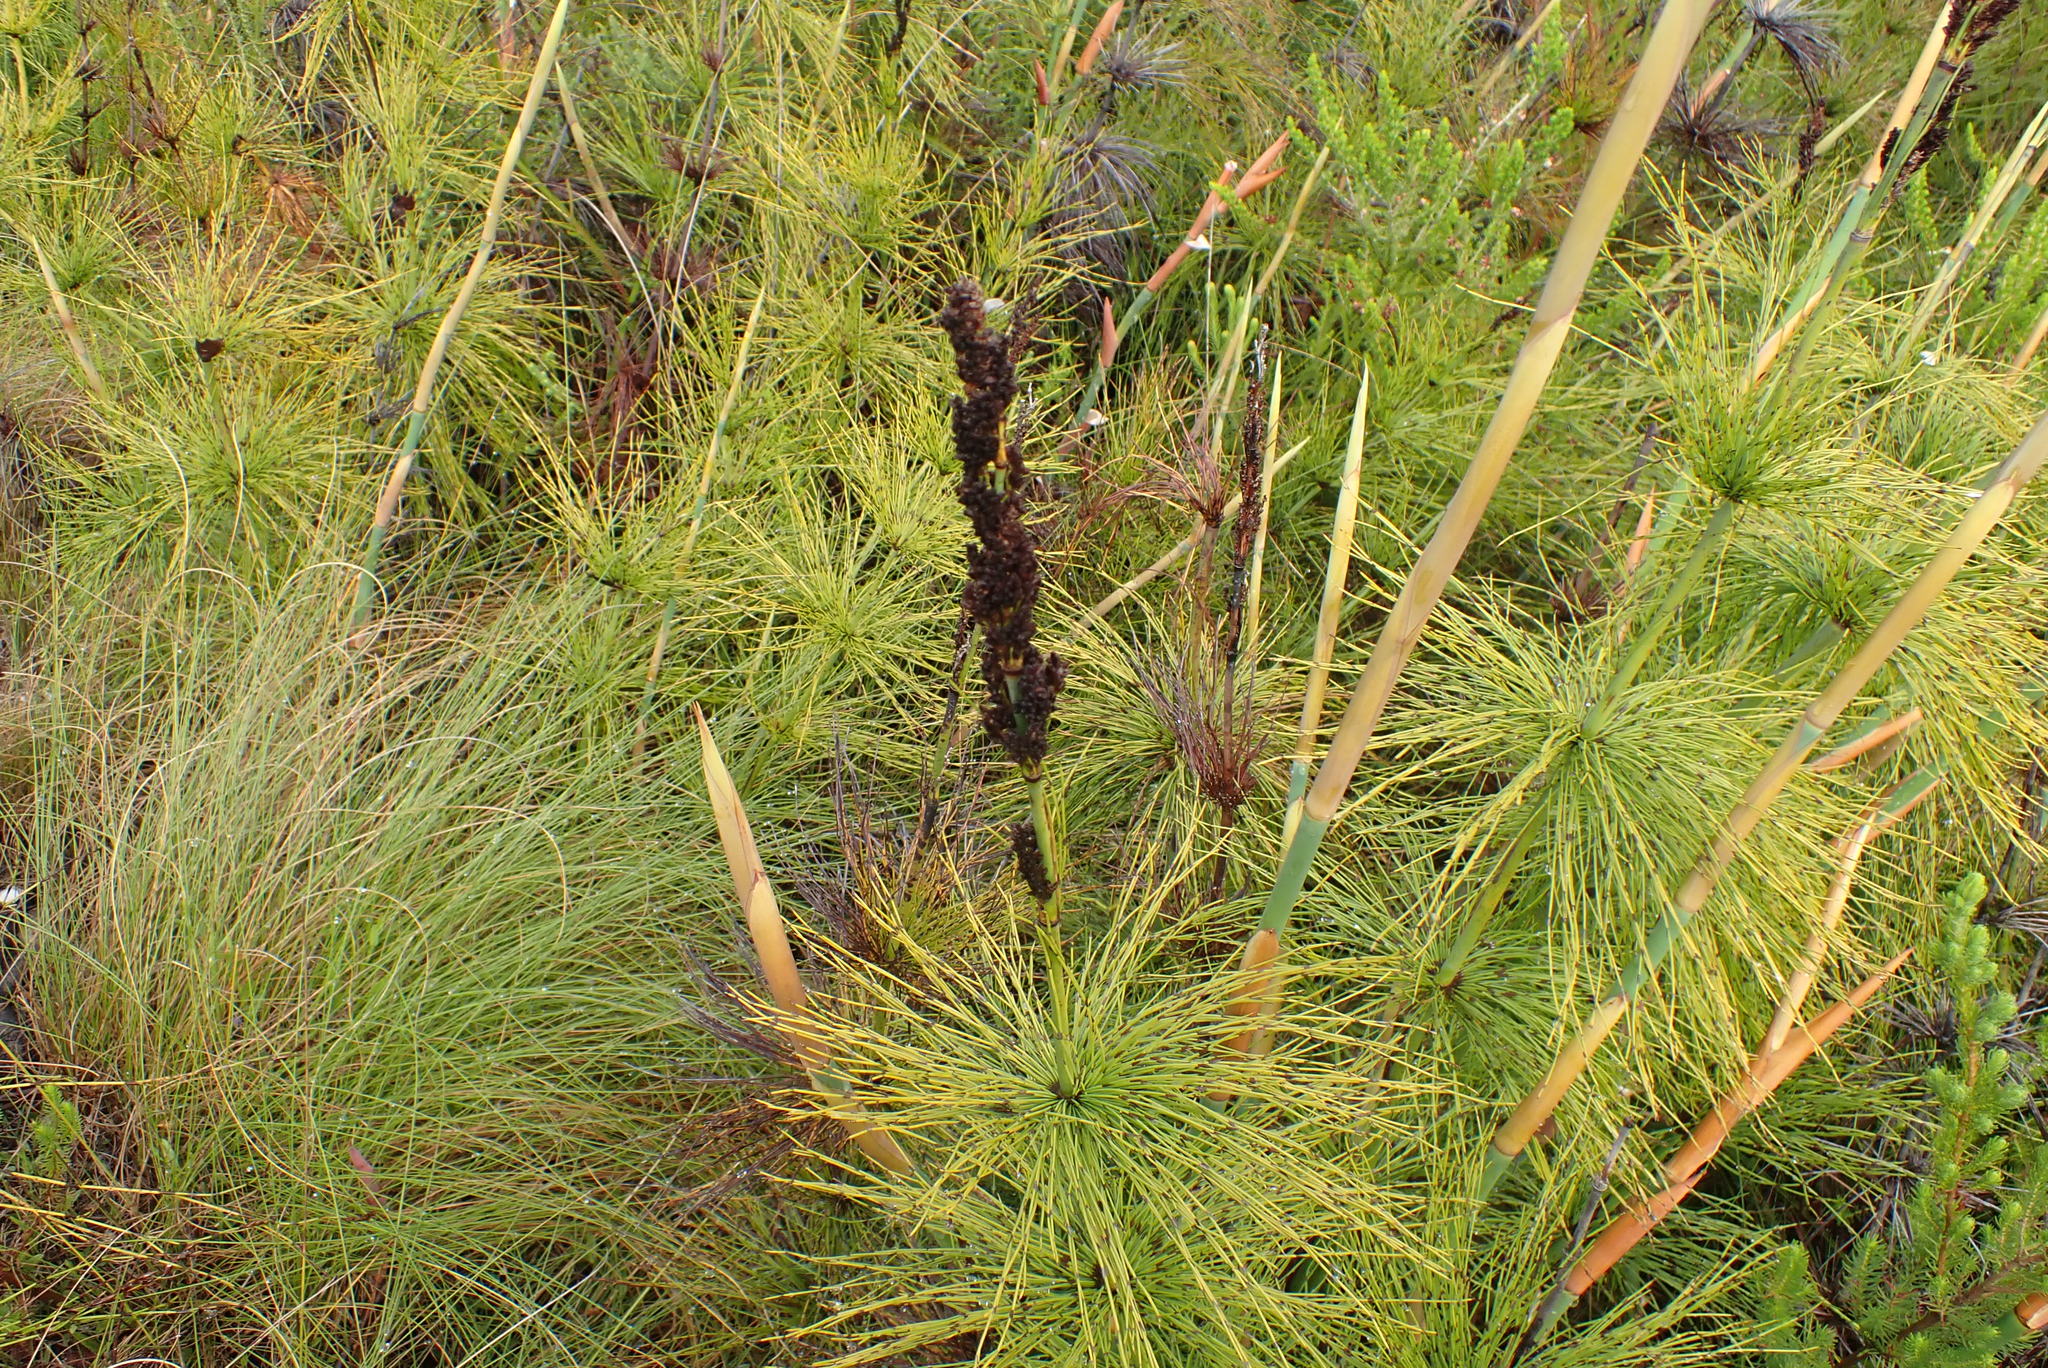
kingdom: Plantae
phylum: Tracheophyta
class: Liliopsida
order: Poales
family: Restionaceae
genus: Elegia
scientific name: Elegia capensis
